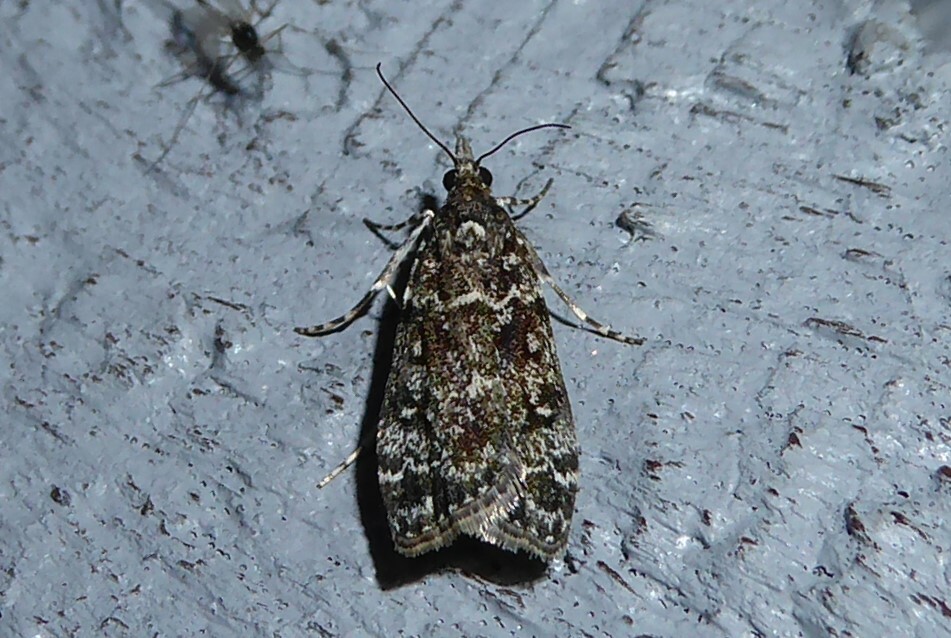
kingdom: Animalia
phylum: Arthropoda
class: Insecta
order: Lepidoptera
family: Crambidae
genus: Eudonia
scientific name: Eudonia philerga
